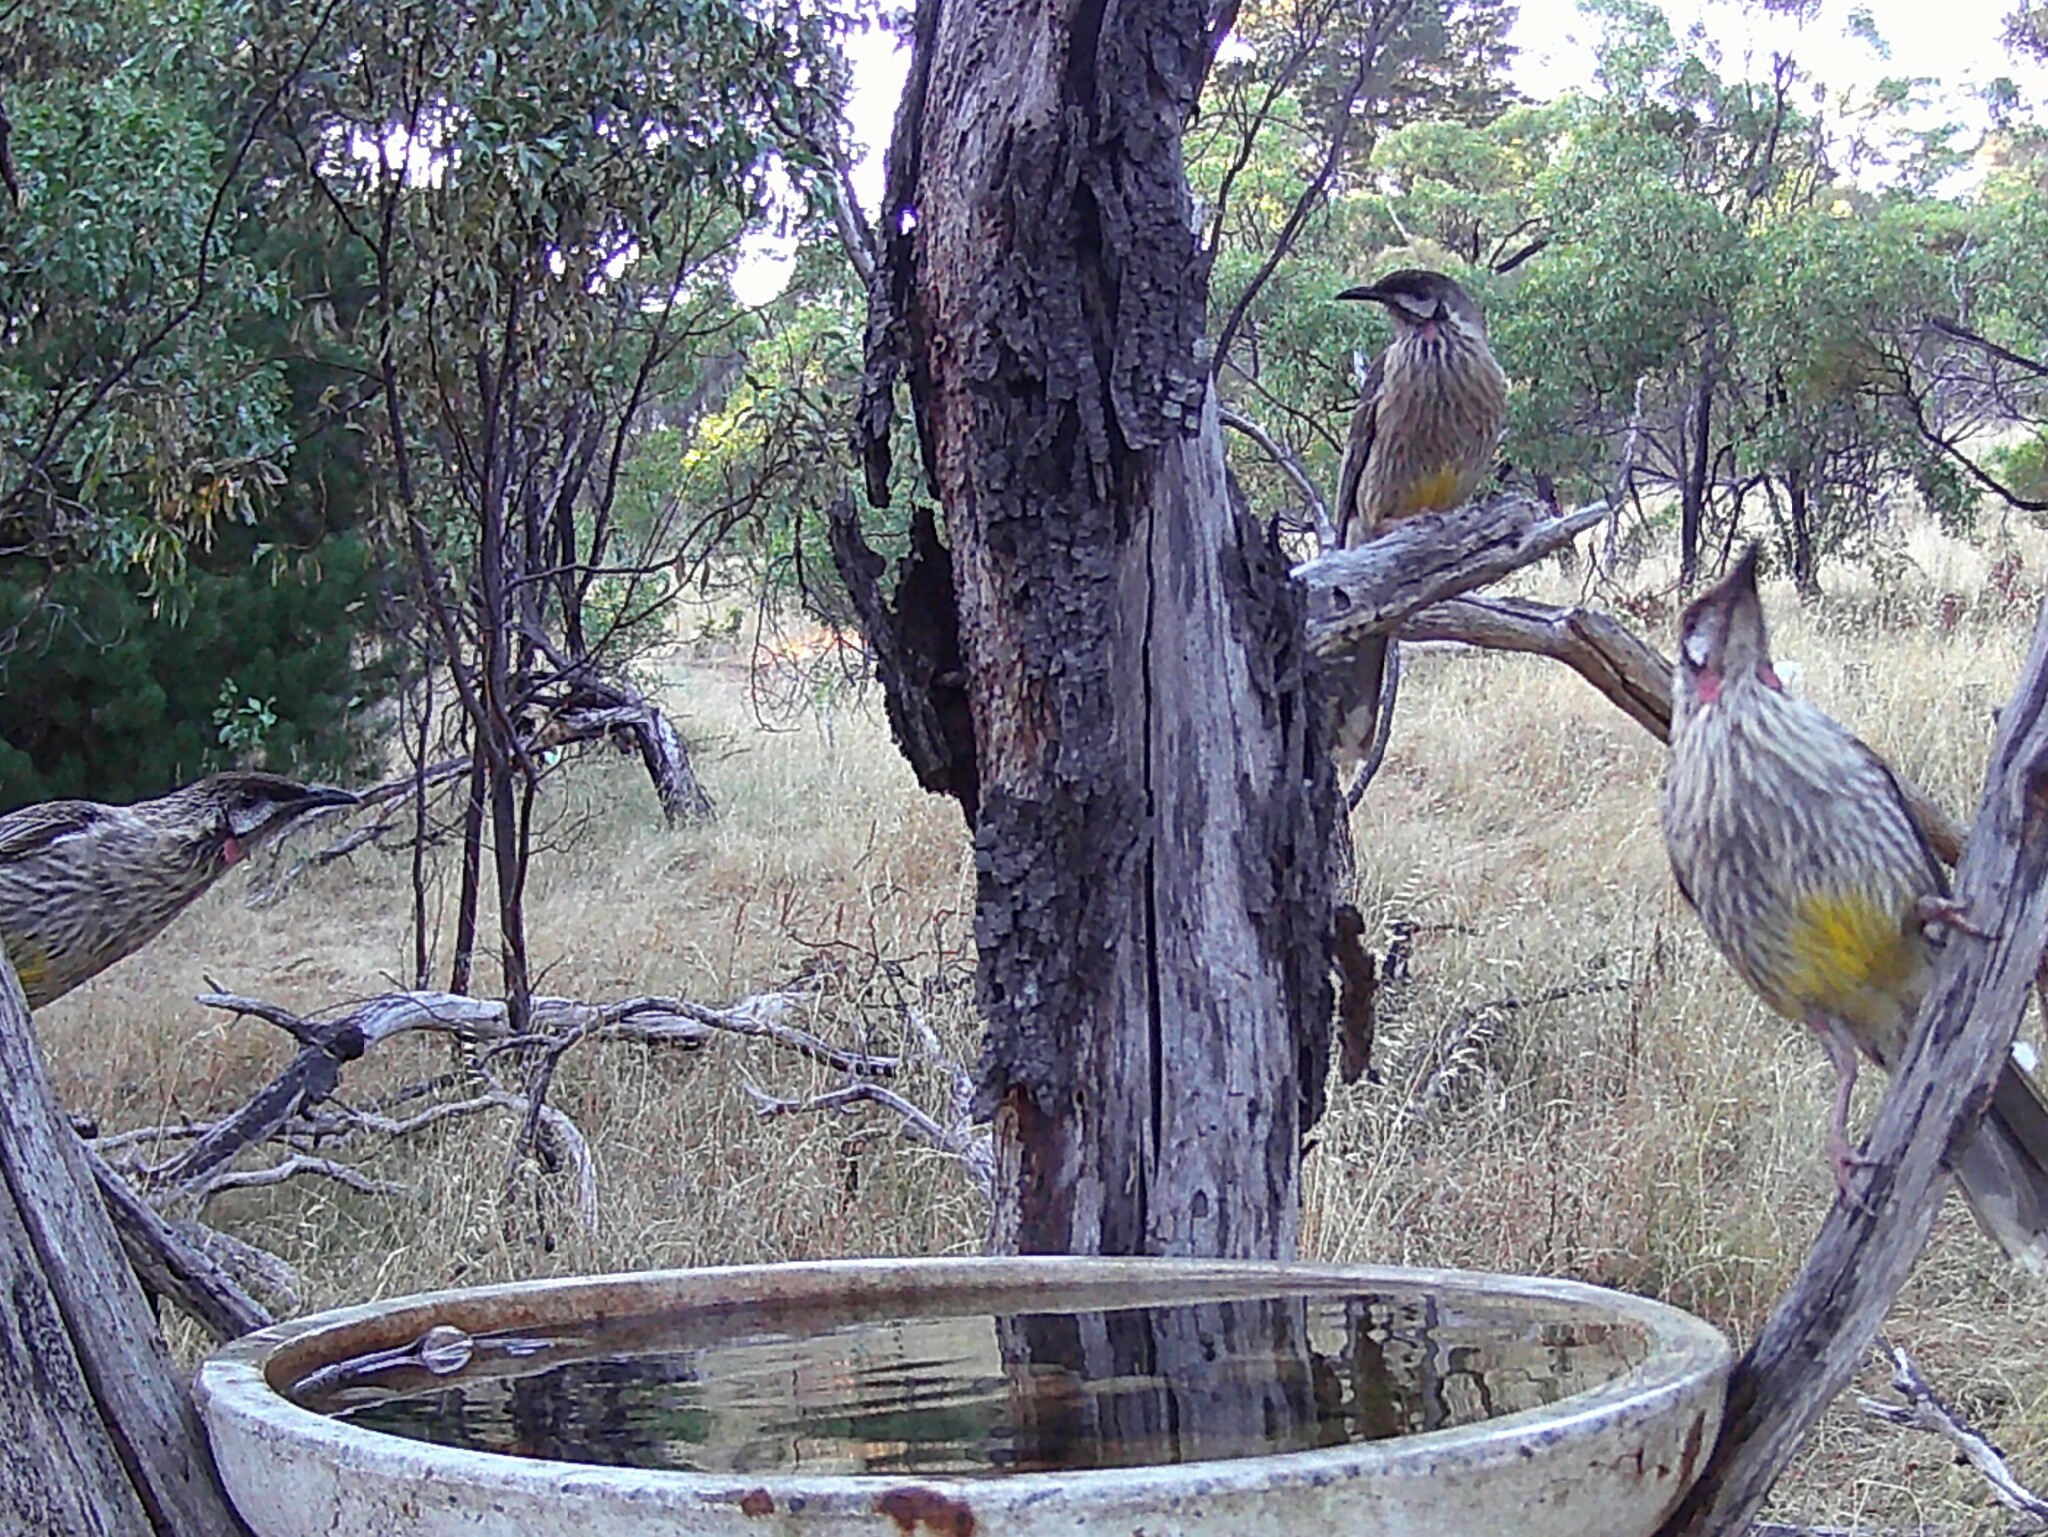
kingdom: Animalia
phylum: Chordata
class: Aves
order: Passeriformes
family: Meliphagidae
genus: Anthochaera
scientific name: Anthochaera carunculata
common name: Red wattlebird
